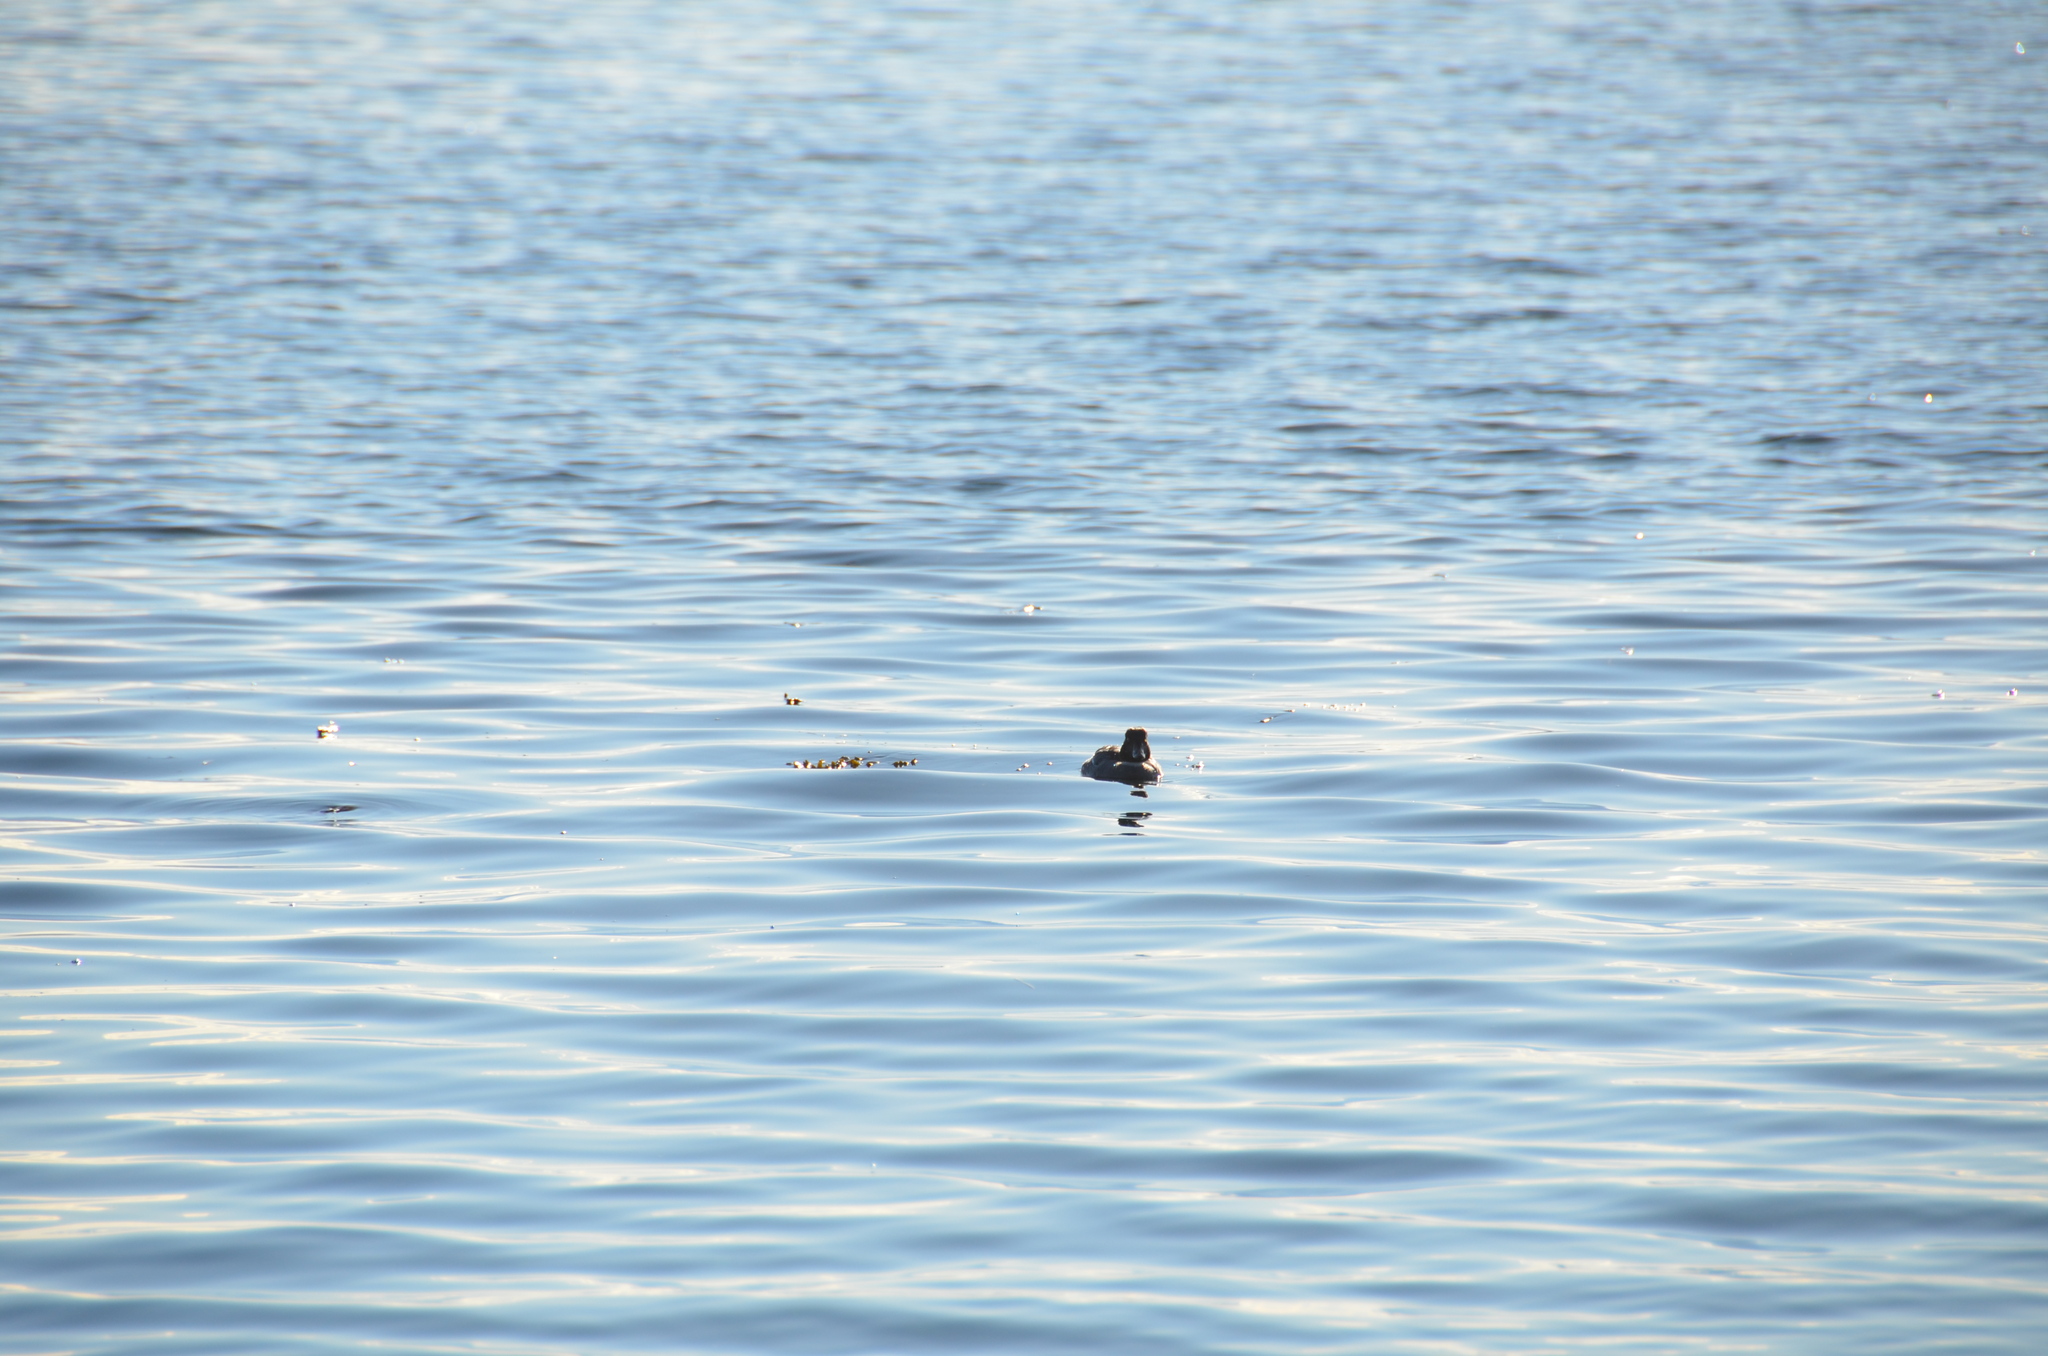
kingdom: Animalia
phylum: Chordata
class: Aves
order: Anseriformes
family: Anatidae
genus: Bucephala
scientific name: Bucephala clangula
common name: Common goldeneye
